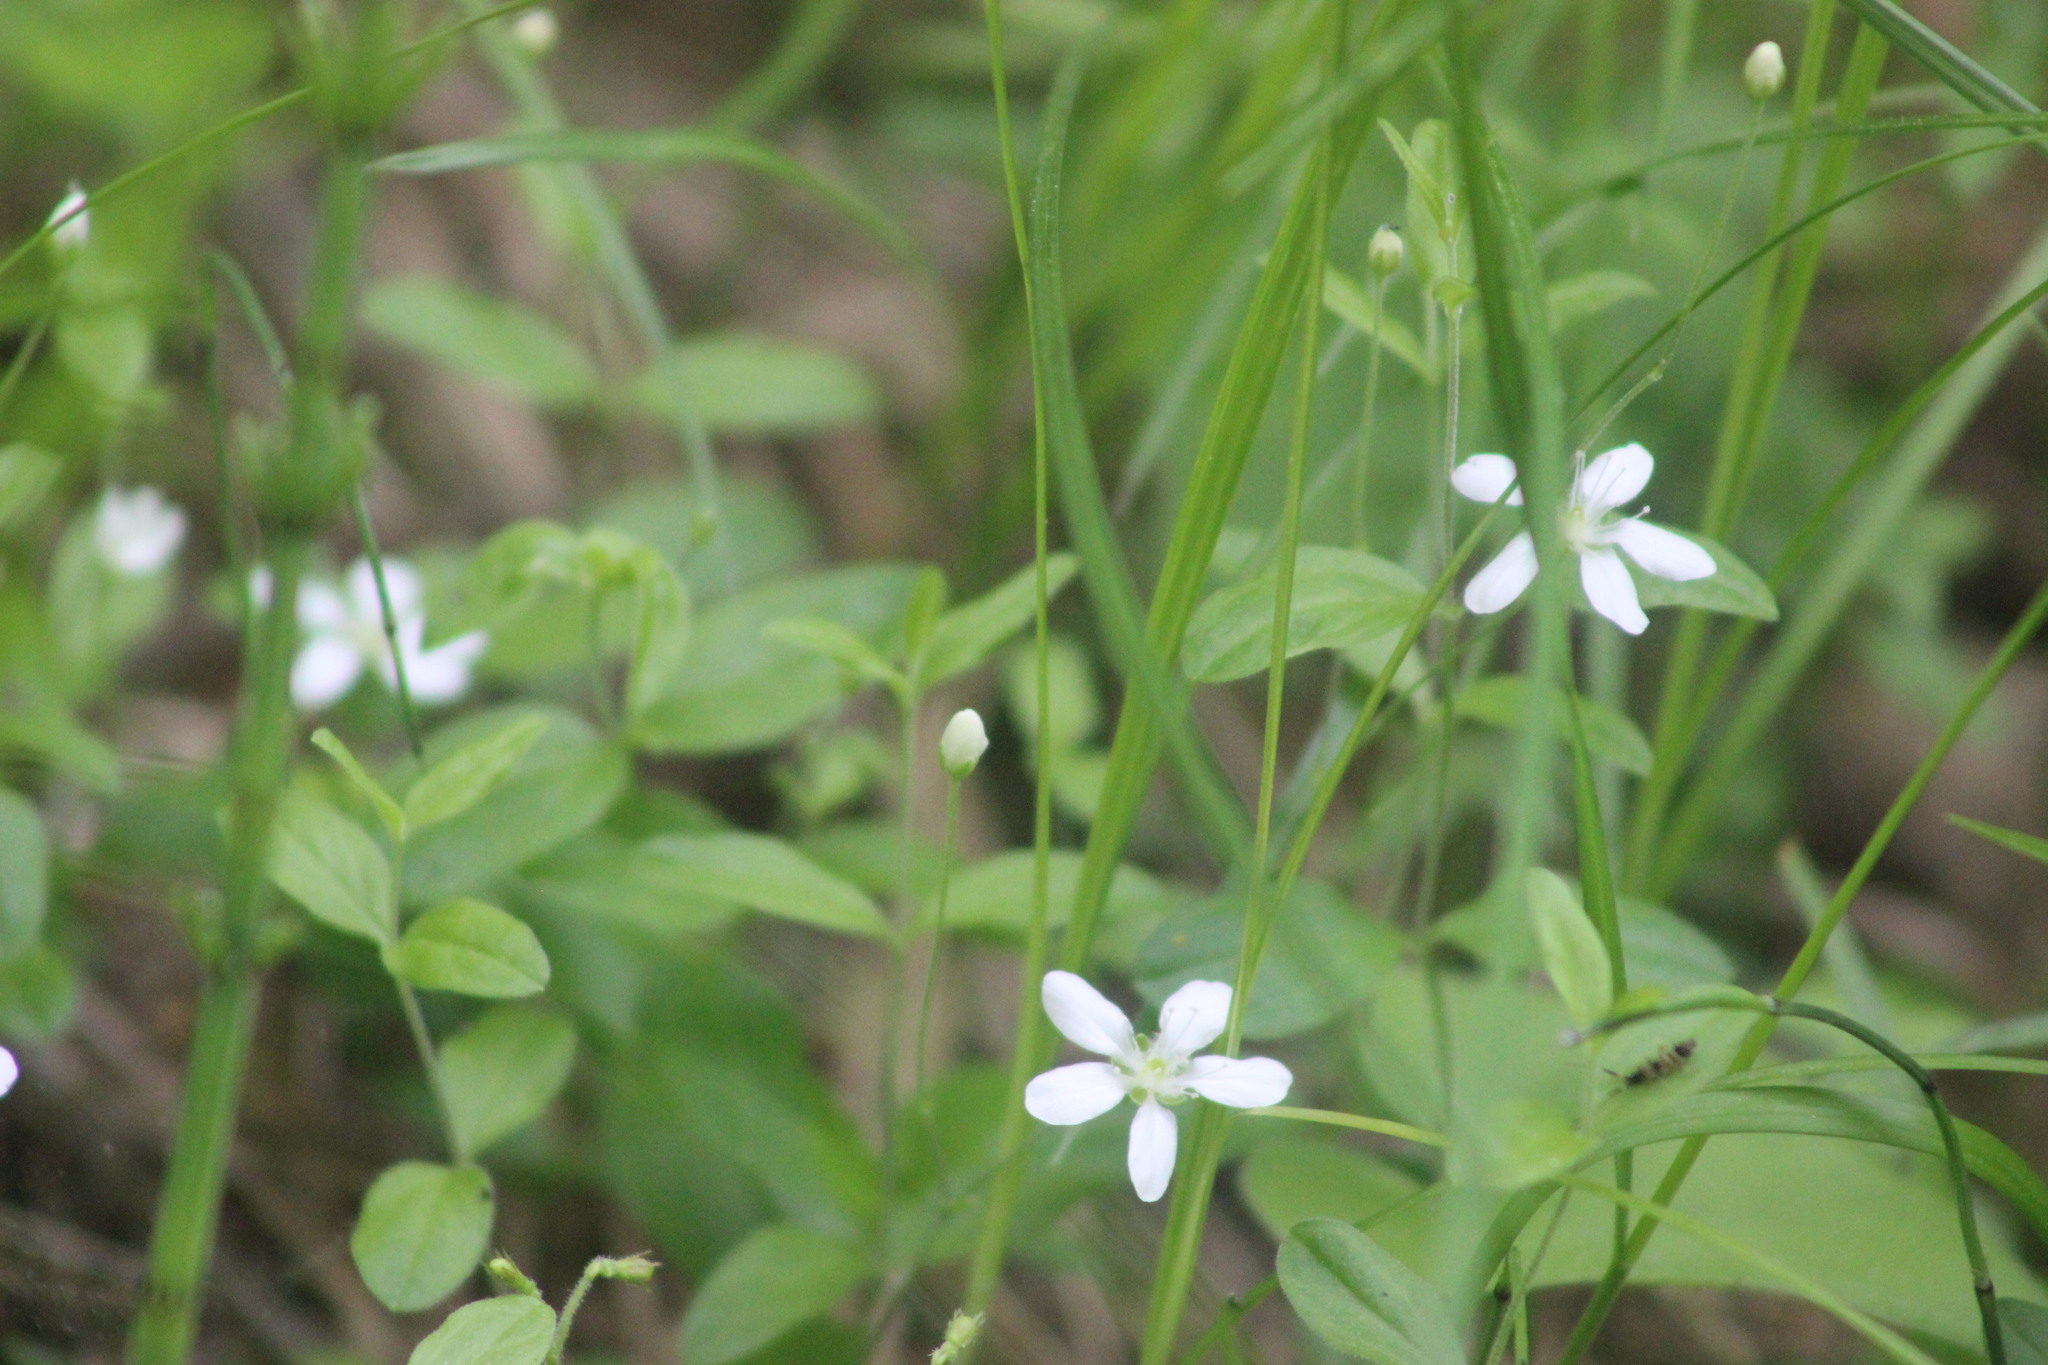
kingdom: Plantae
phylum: Tracheophyta
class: Magnoliopsida
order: Caryophyllales
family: Caryophyllaceae
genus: Moehringia
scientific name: Moehringia lateriflora
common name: Blunt-leaved sandwort
